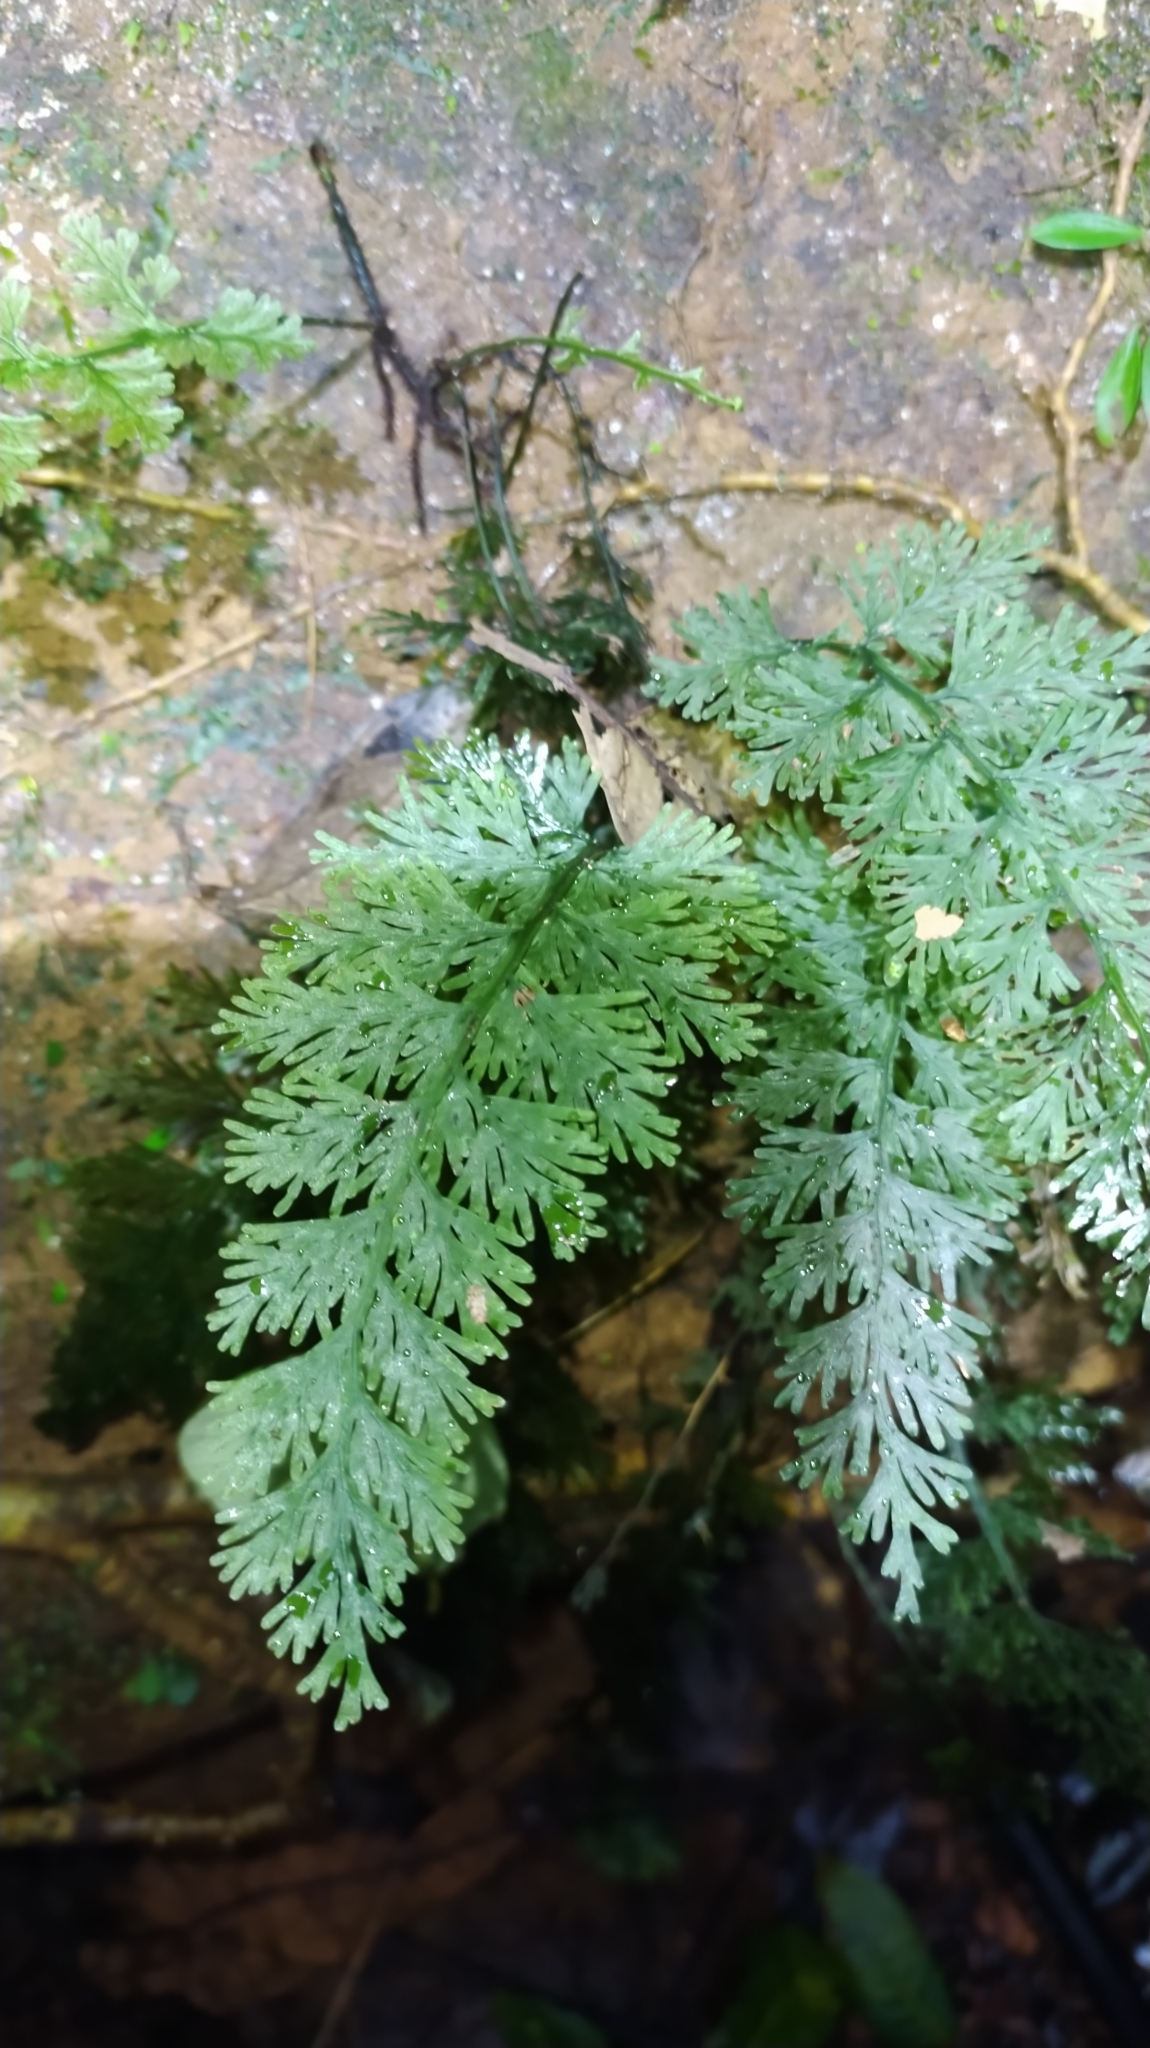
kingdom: Plantae
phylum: Tracheophyta
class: Polypodiopsida
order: Hymenophyllales
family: Hymenophyllaceae
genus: Vandenboschia
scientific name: Vandenboschia radicans
